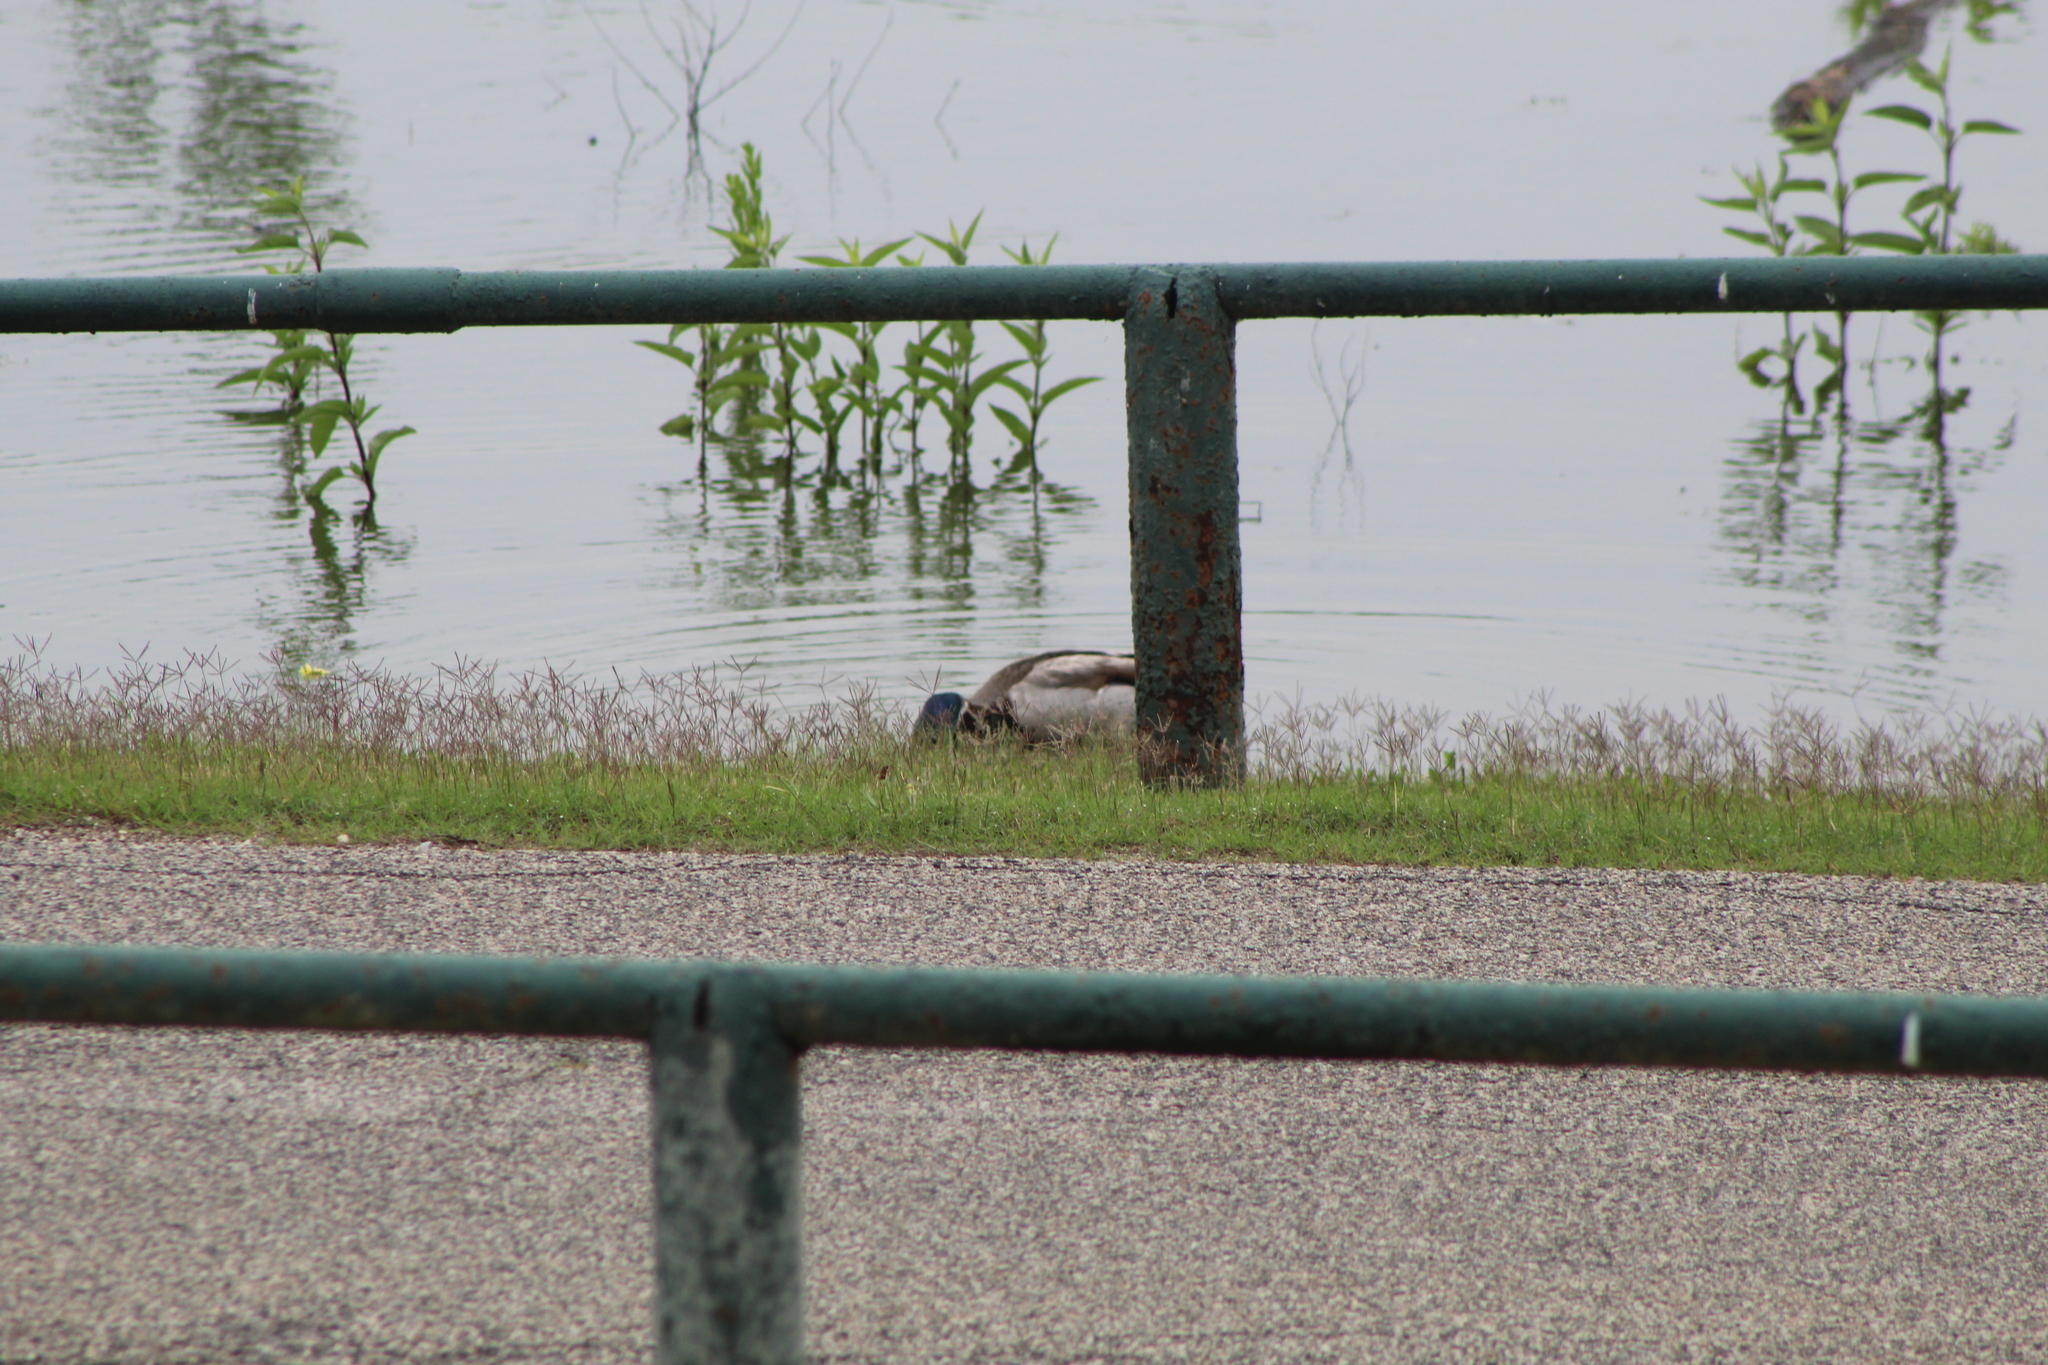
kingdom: Animalia
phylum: Chordata
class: Aves
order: Anseriformes
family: Anatidae
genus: Anas
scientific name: Anas platyrhynchos
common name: Mallard
